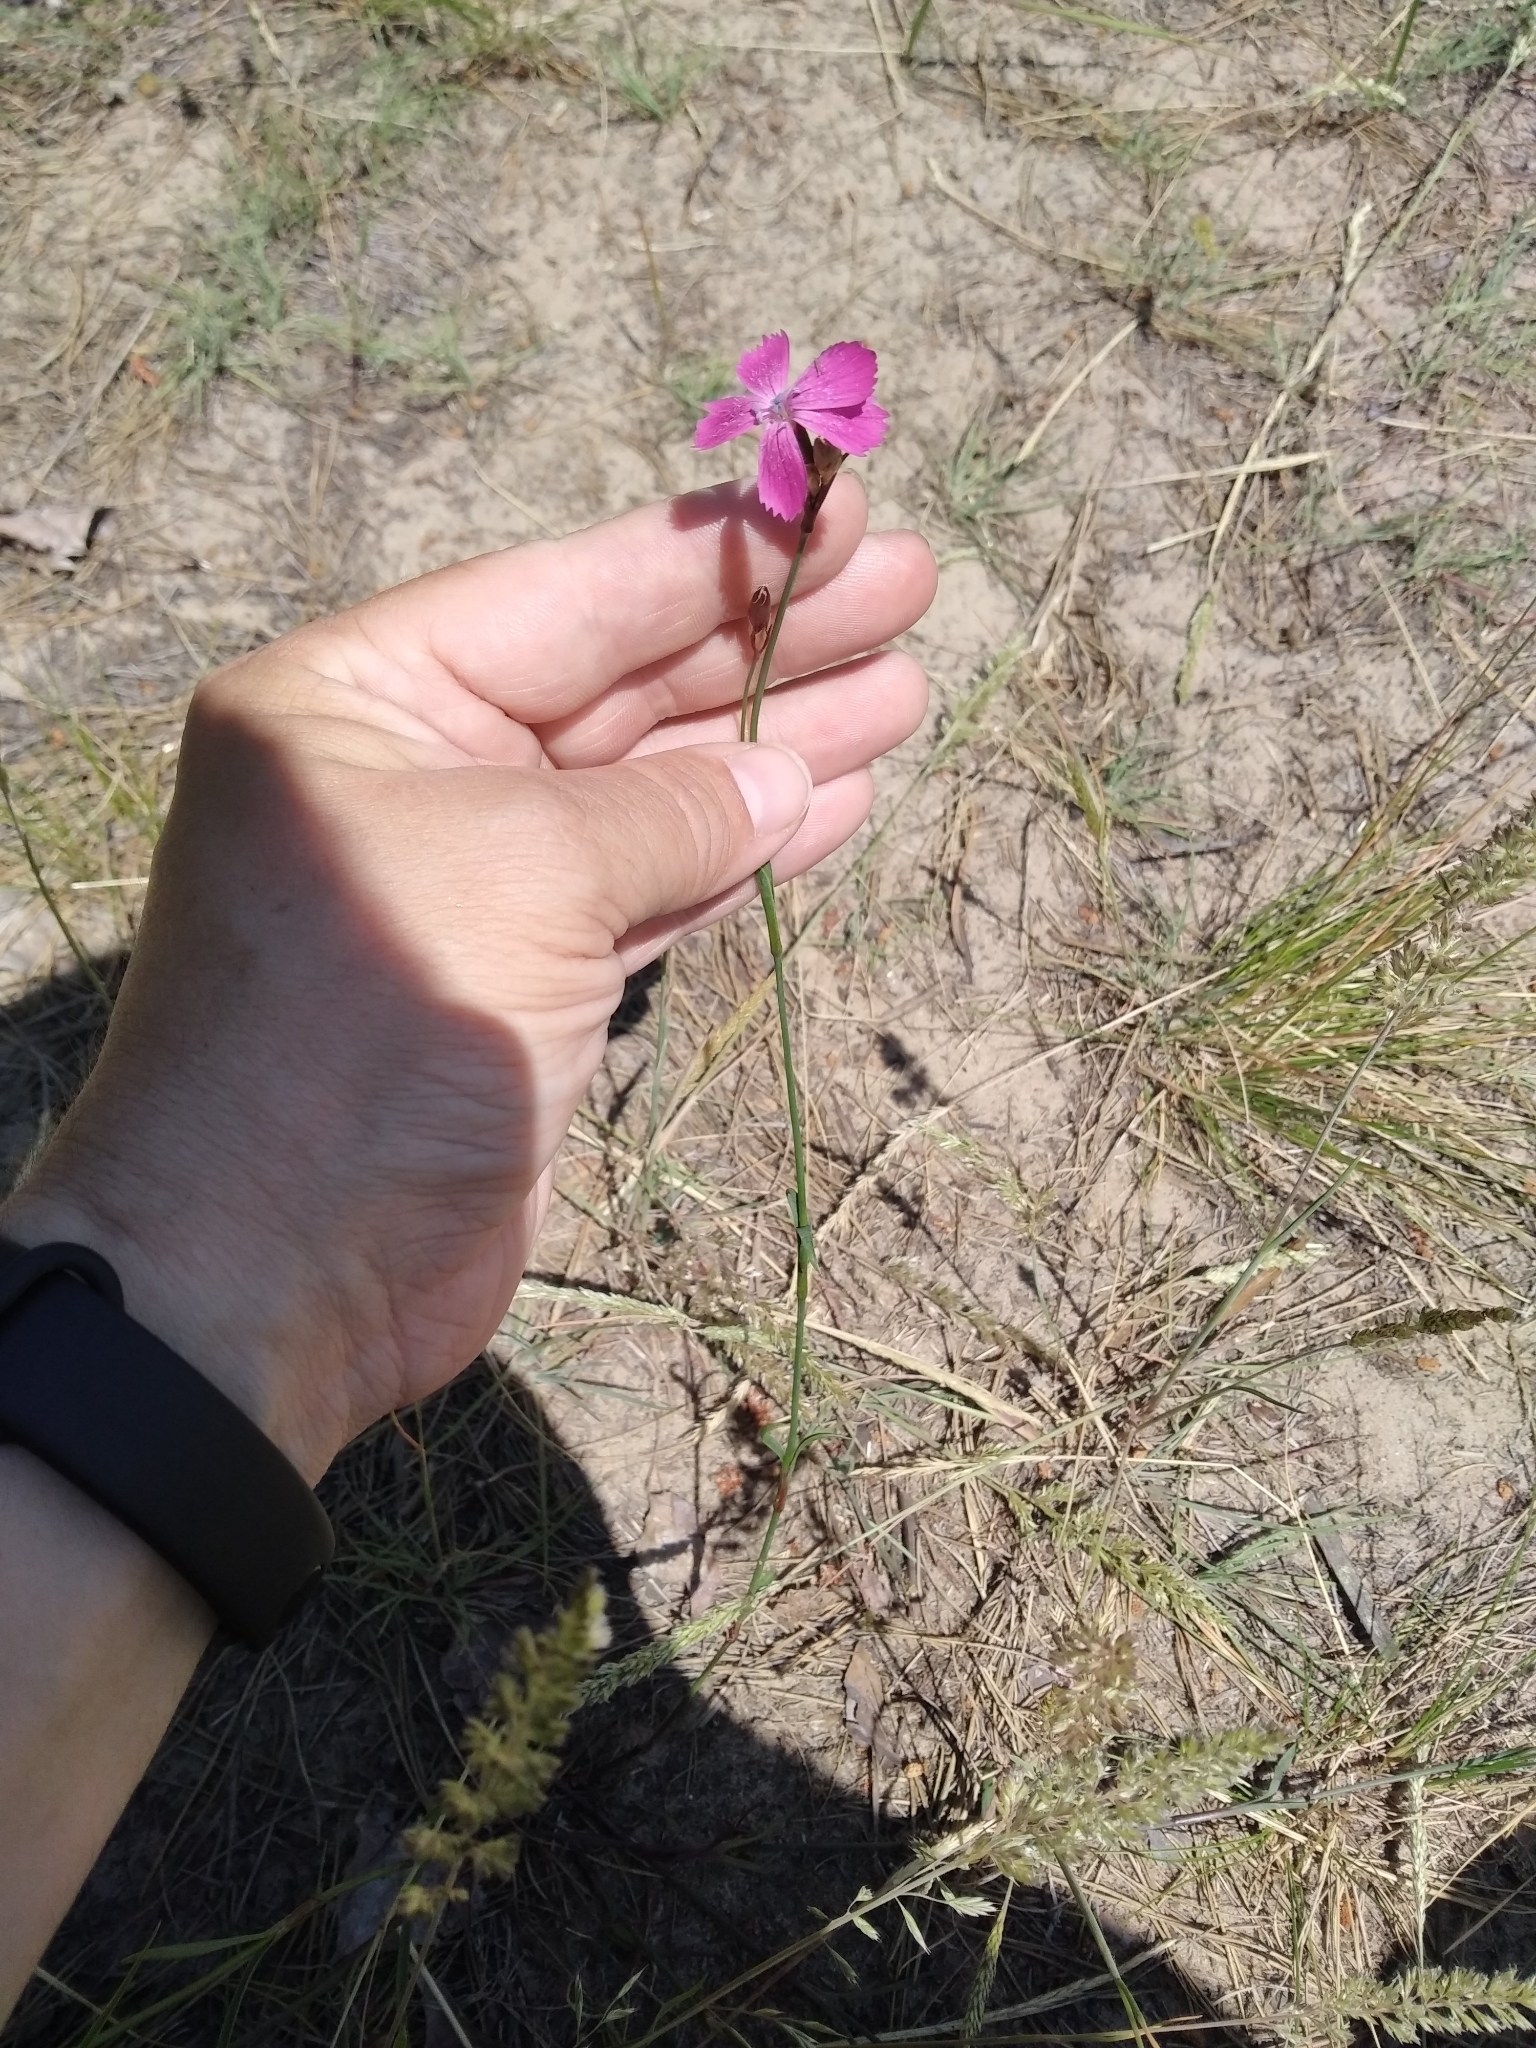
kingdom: Plantae
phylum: Tracheophyta
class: Magnoliopsida
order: Caryophyllales
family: Caryophyllaceae
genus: Dianthus
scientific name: Dianthus deltoides
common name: Maiden pink
